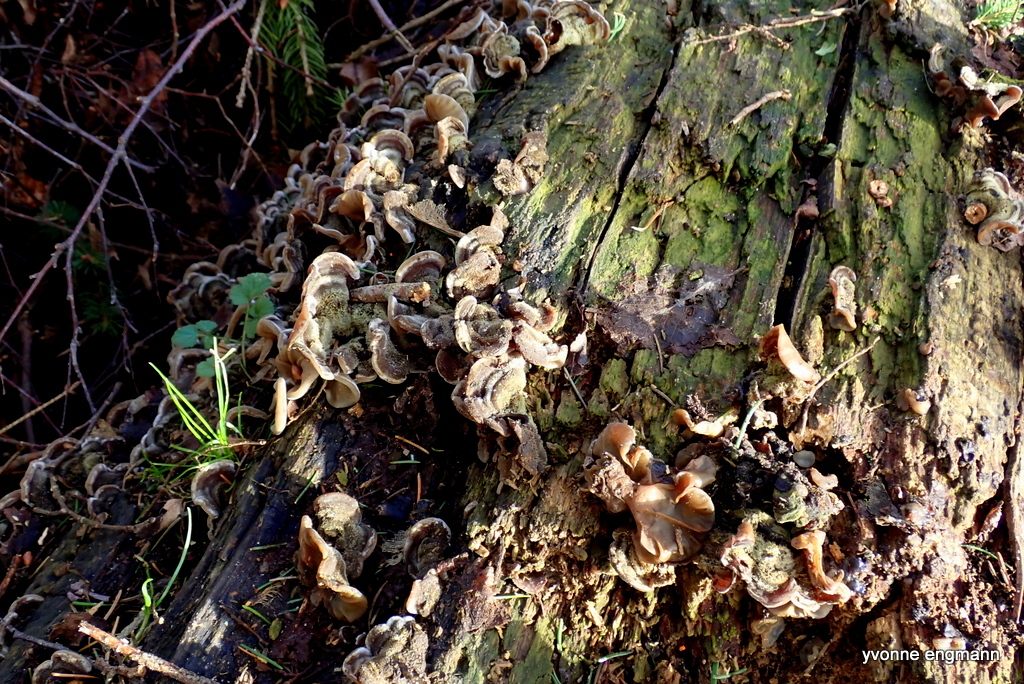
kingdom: Fungi
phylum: Basidiomycota
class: Agaricomycetes
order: Auriculariales
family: Auriculariaceae
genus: Auricularia
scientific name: Auricularia mesenterica
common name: Tripe fungus
